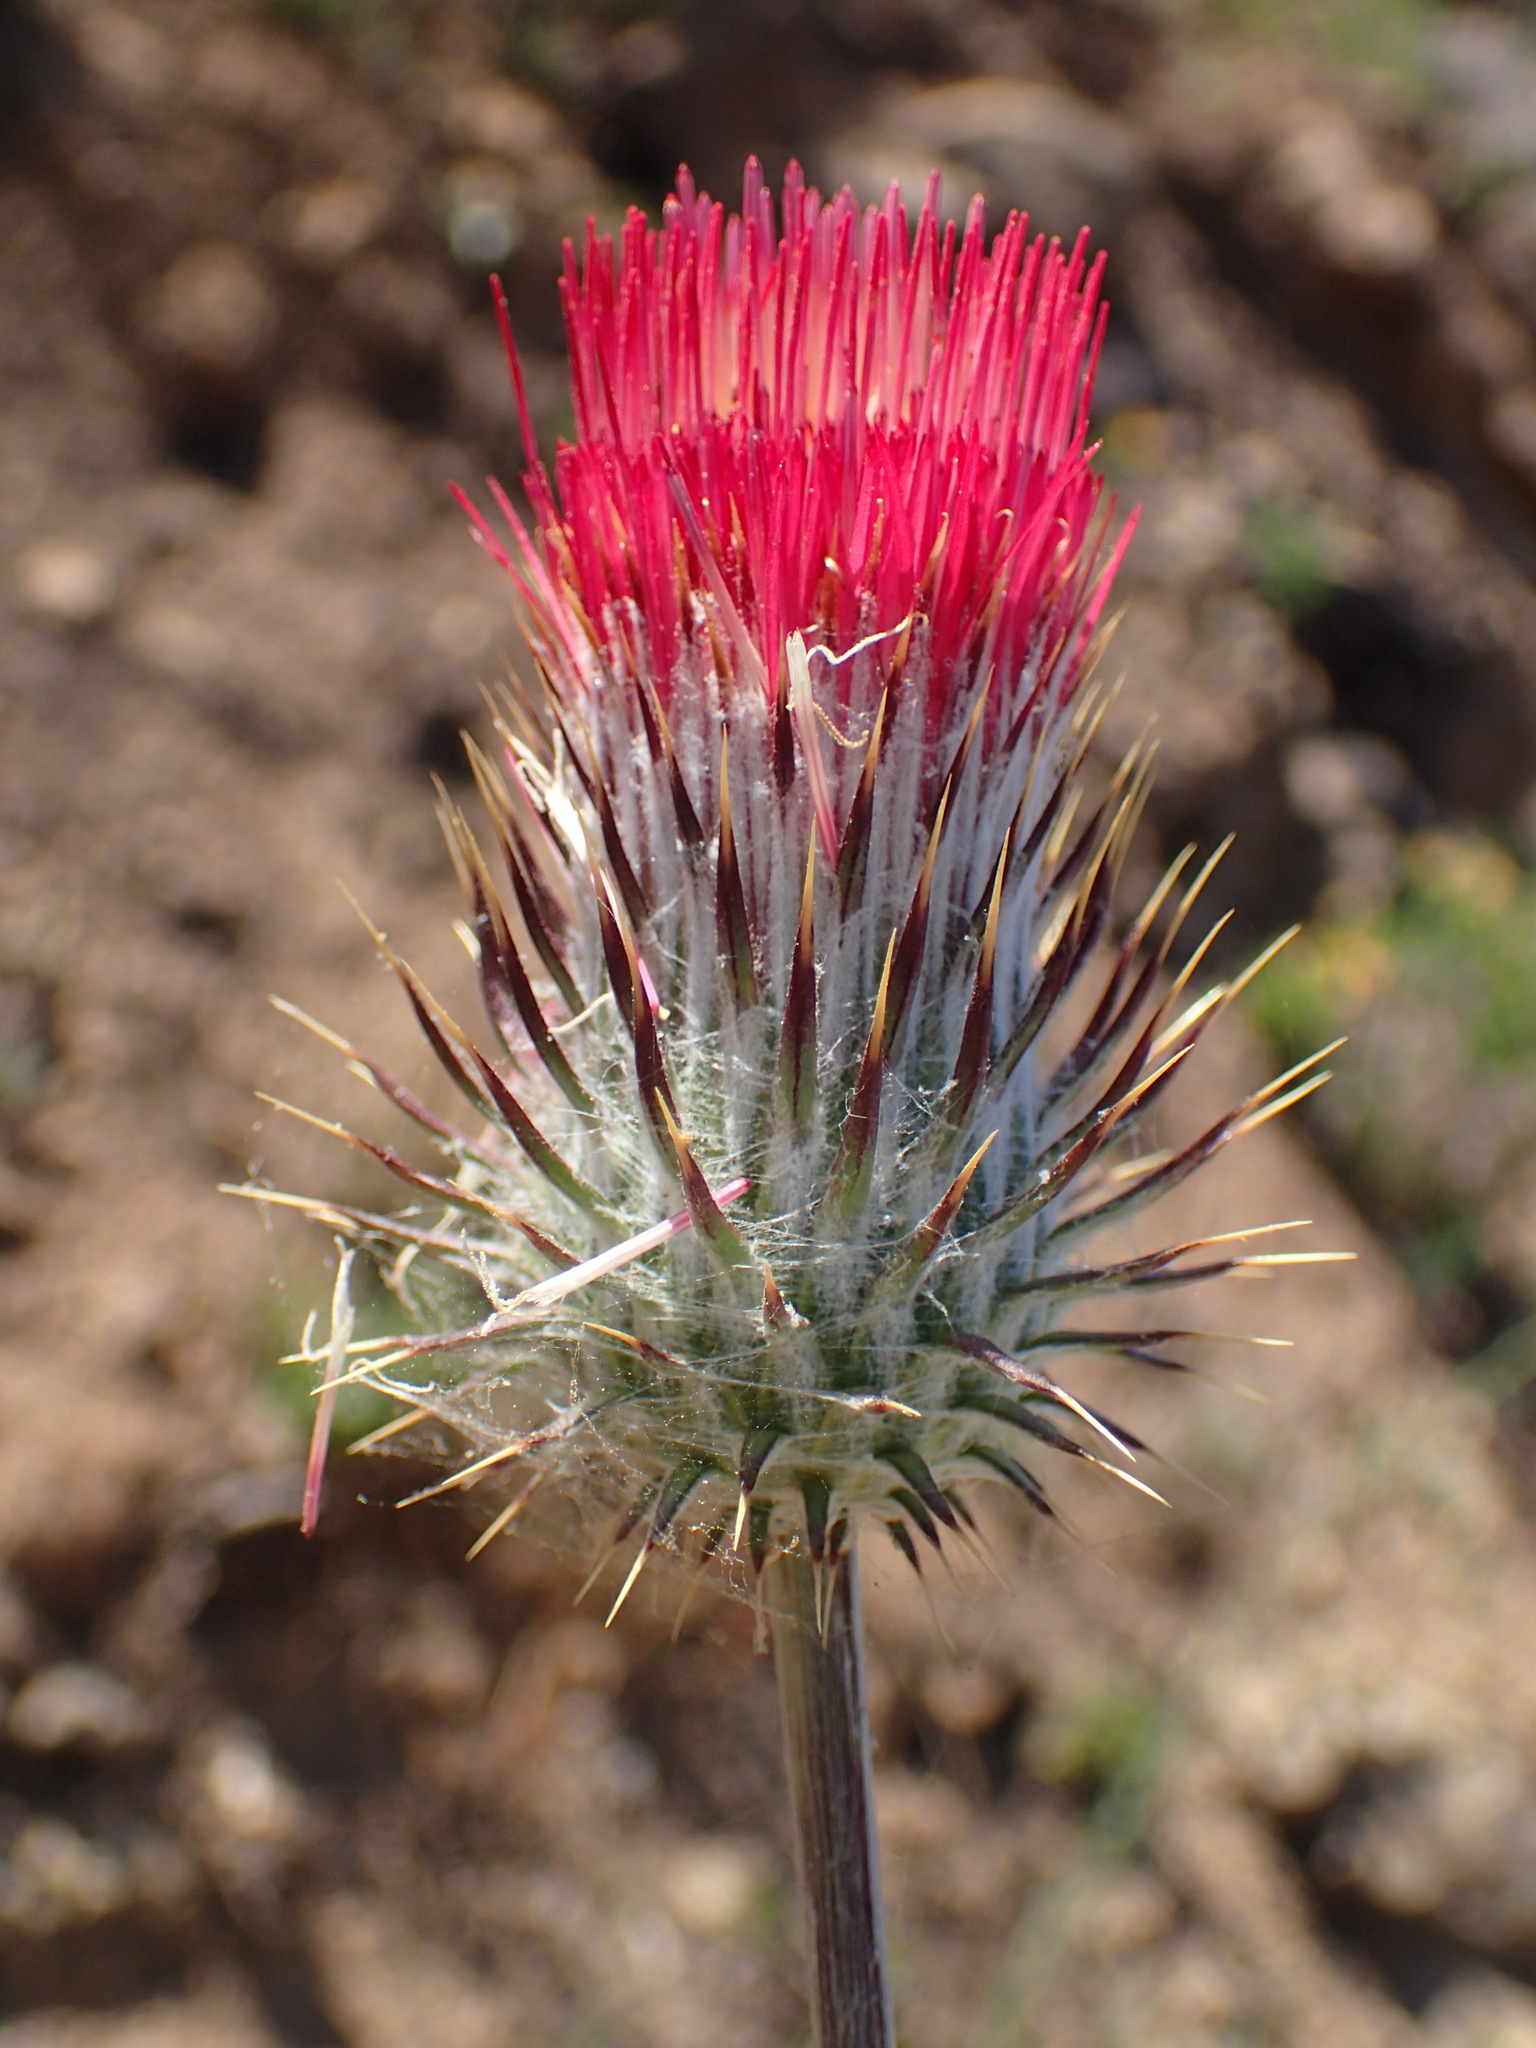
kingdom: Plantae
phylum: Tracheophyta
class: Magnoliopsida
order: Asterales
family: Asteraceae
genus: Cirsium
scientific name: Cirsium occidentale
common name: Western thistle
